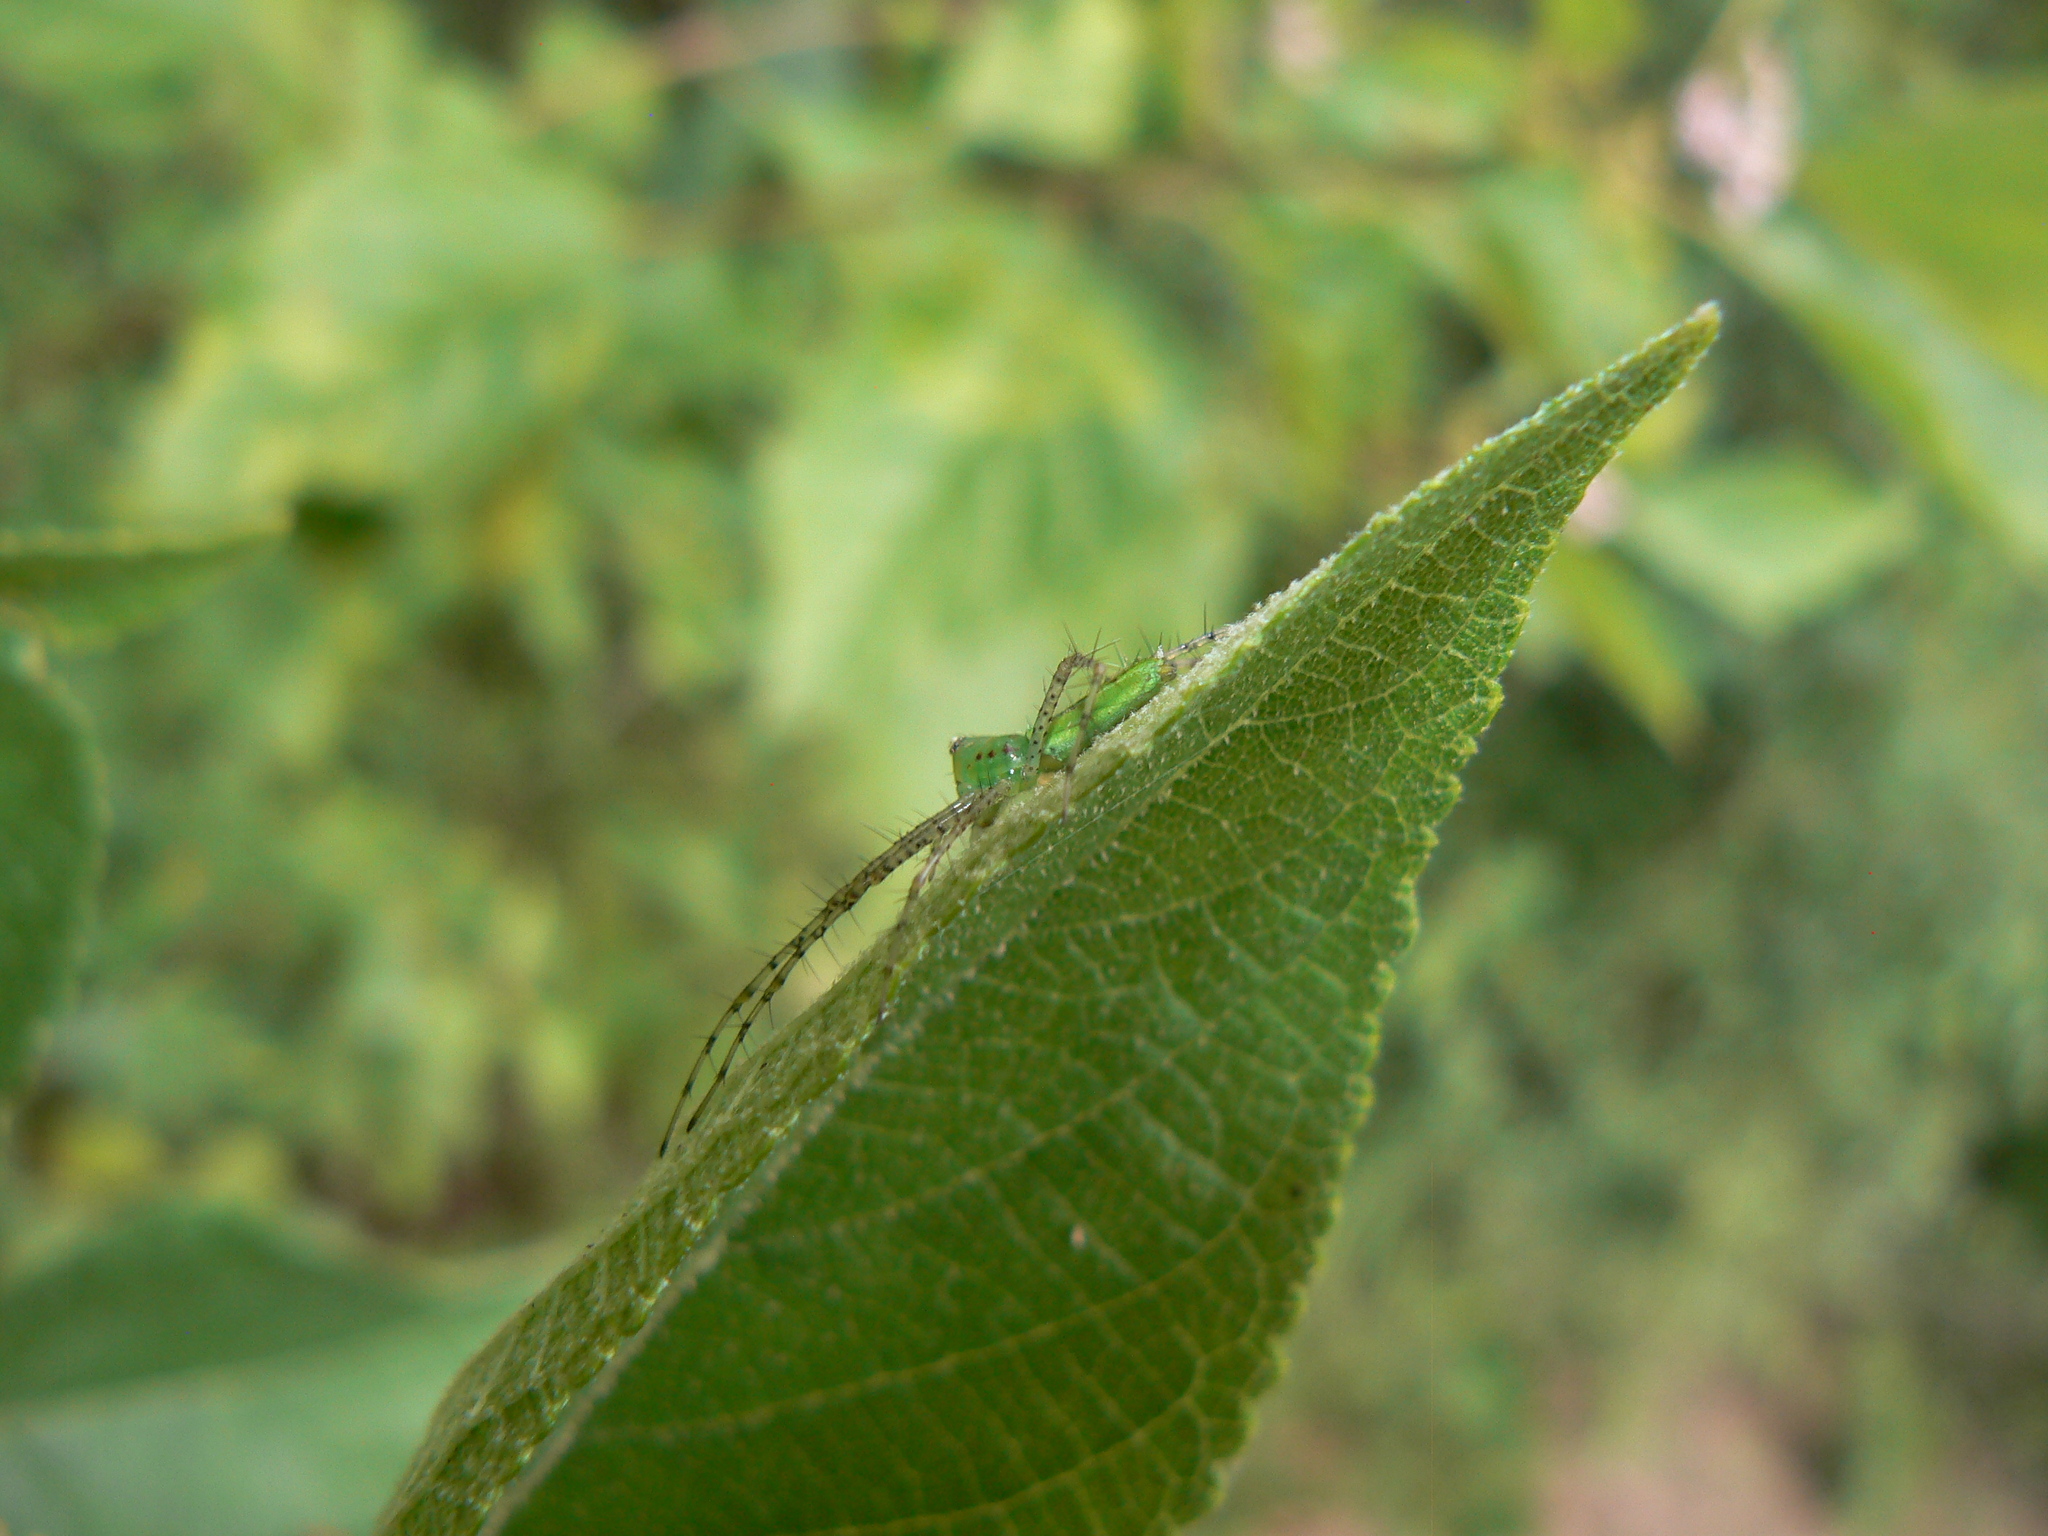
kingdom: Animalia
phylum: Arthropoda
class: Arachnida
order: Araneae
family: Oxyopidae
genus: Peucetia
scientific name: Peucetia viridans
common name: Lynx spiders
